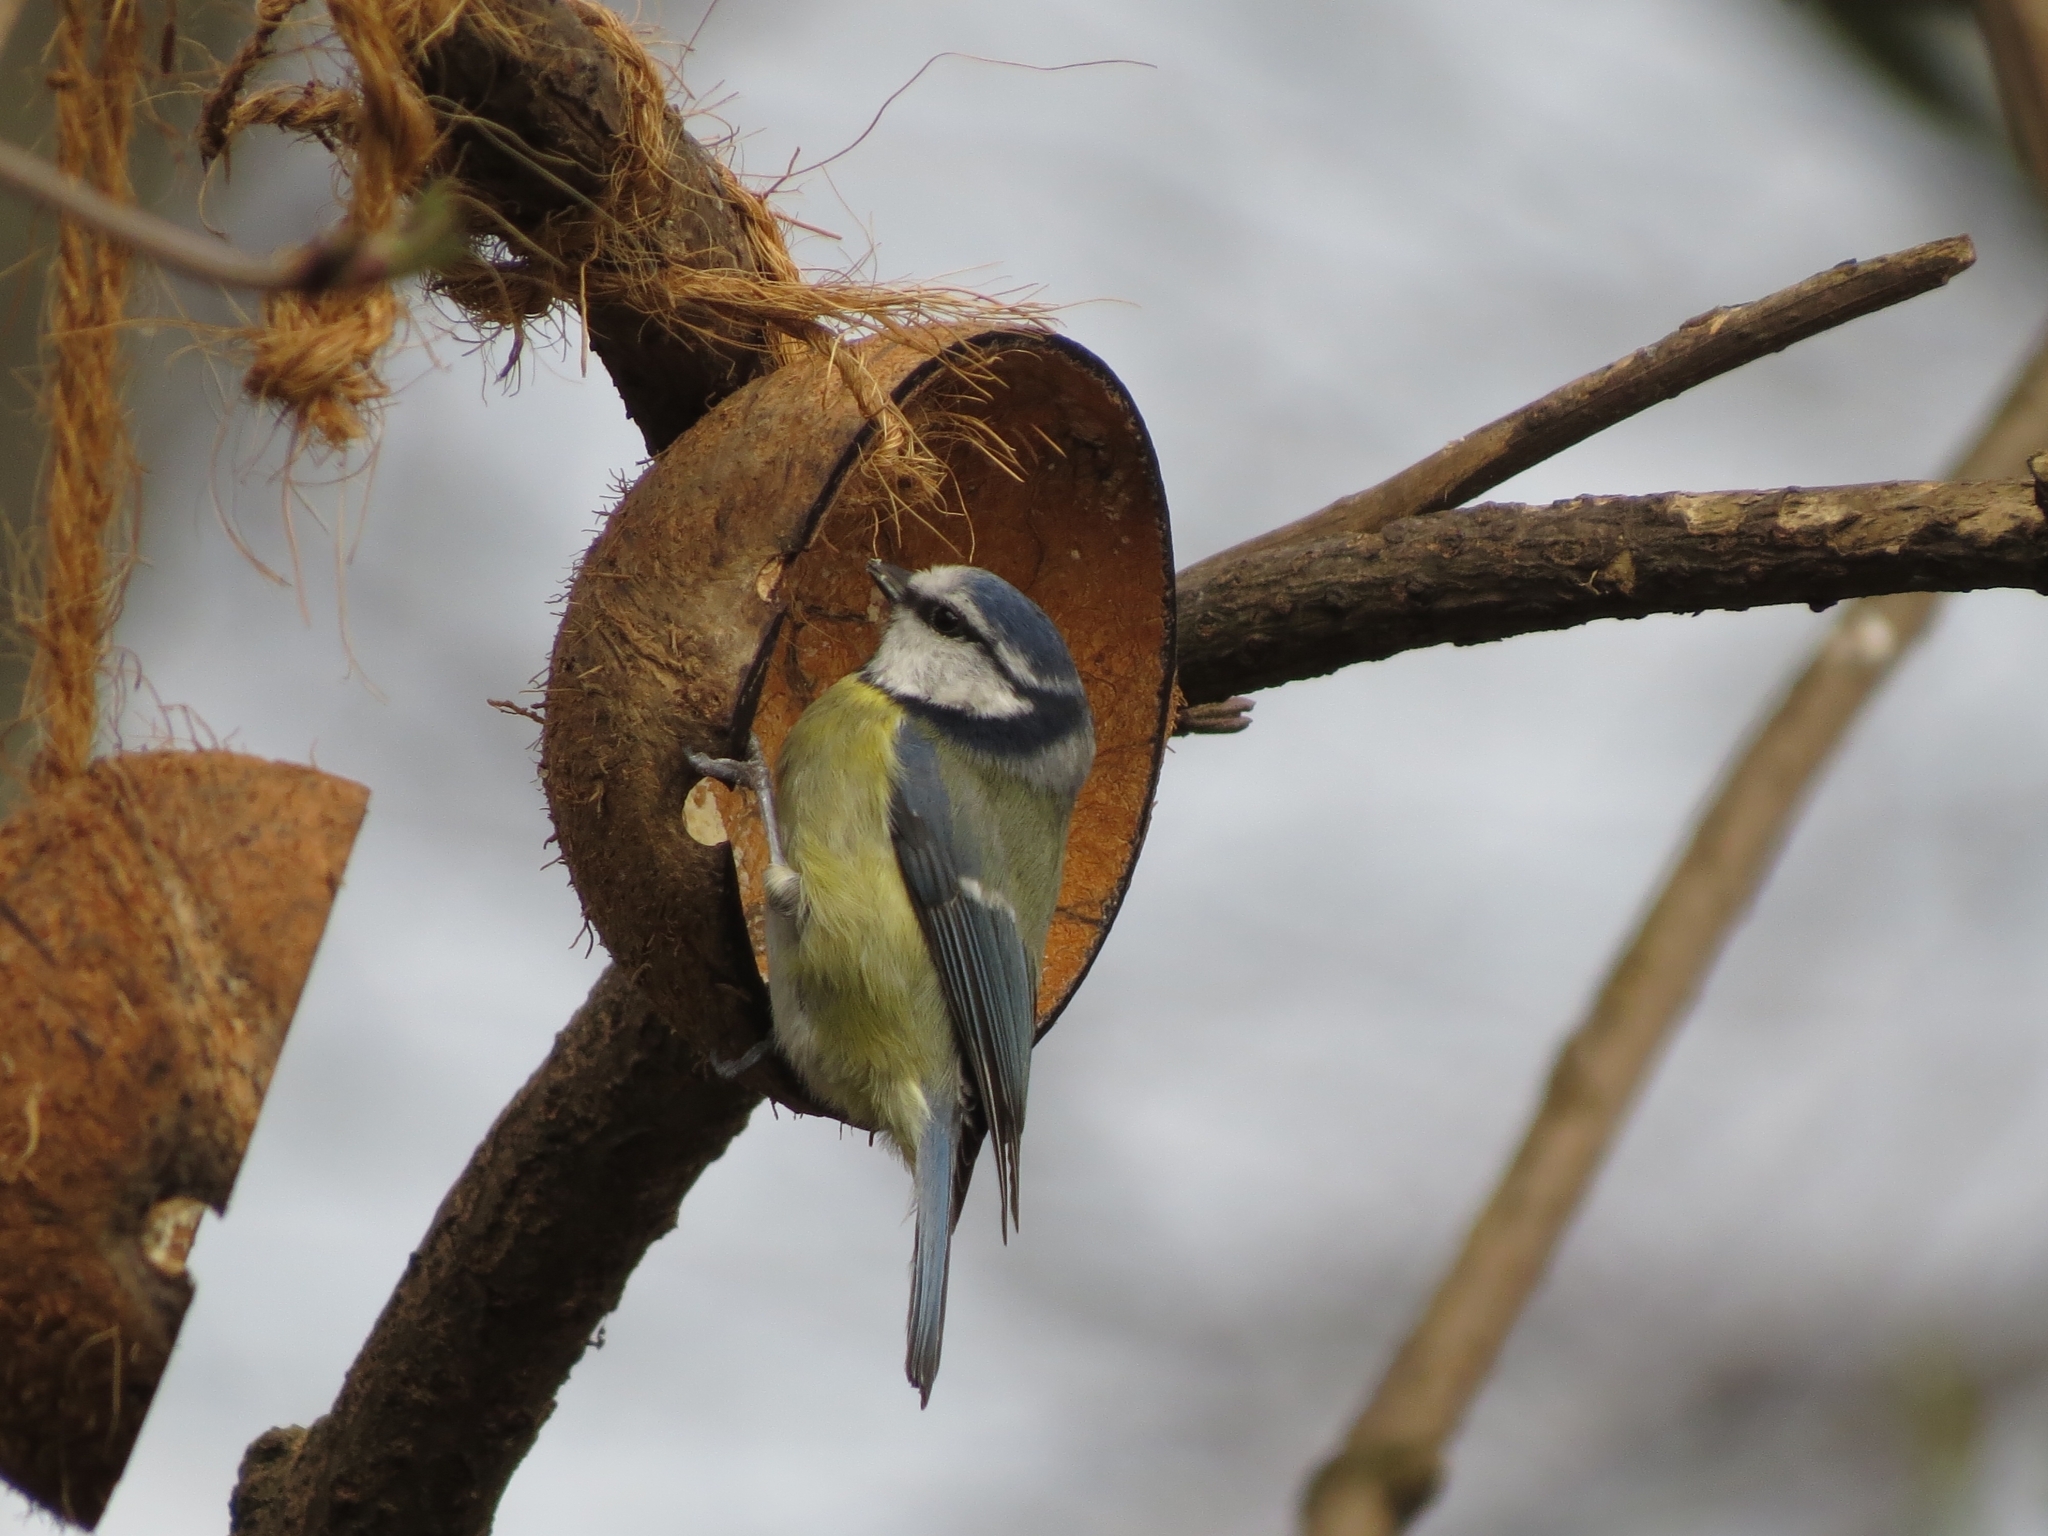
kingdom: Animalia
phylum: Chordata
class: Aves
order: Passeriformes
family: Paridae
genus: Cyanistes
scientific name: Cyanistes caeruleus
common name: Eurasian blue tit
